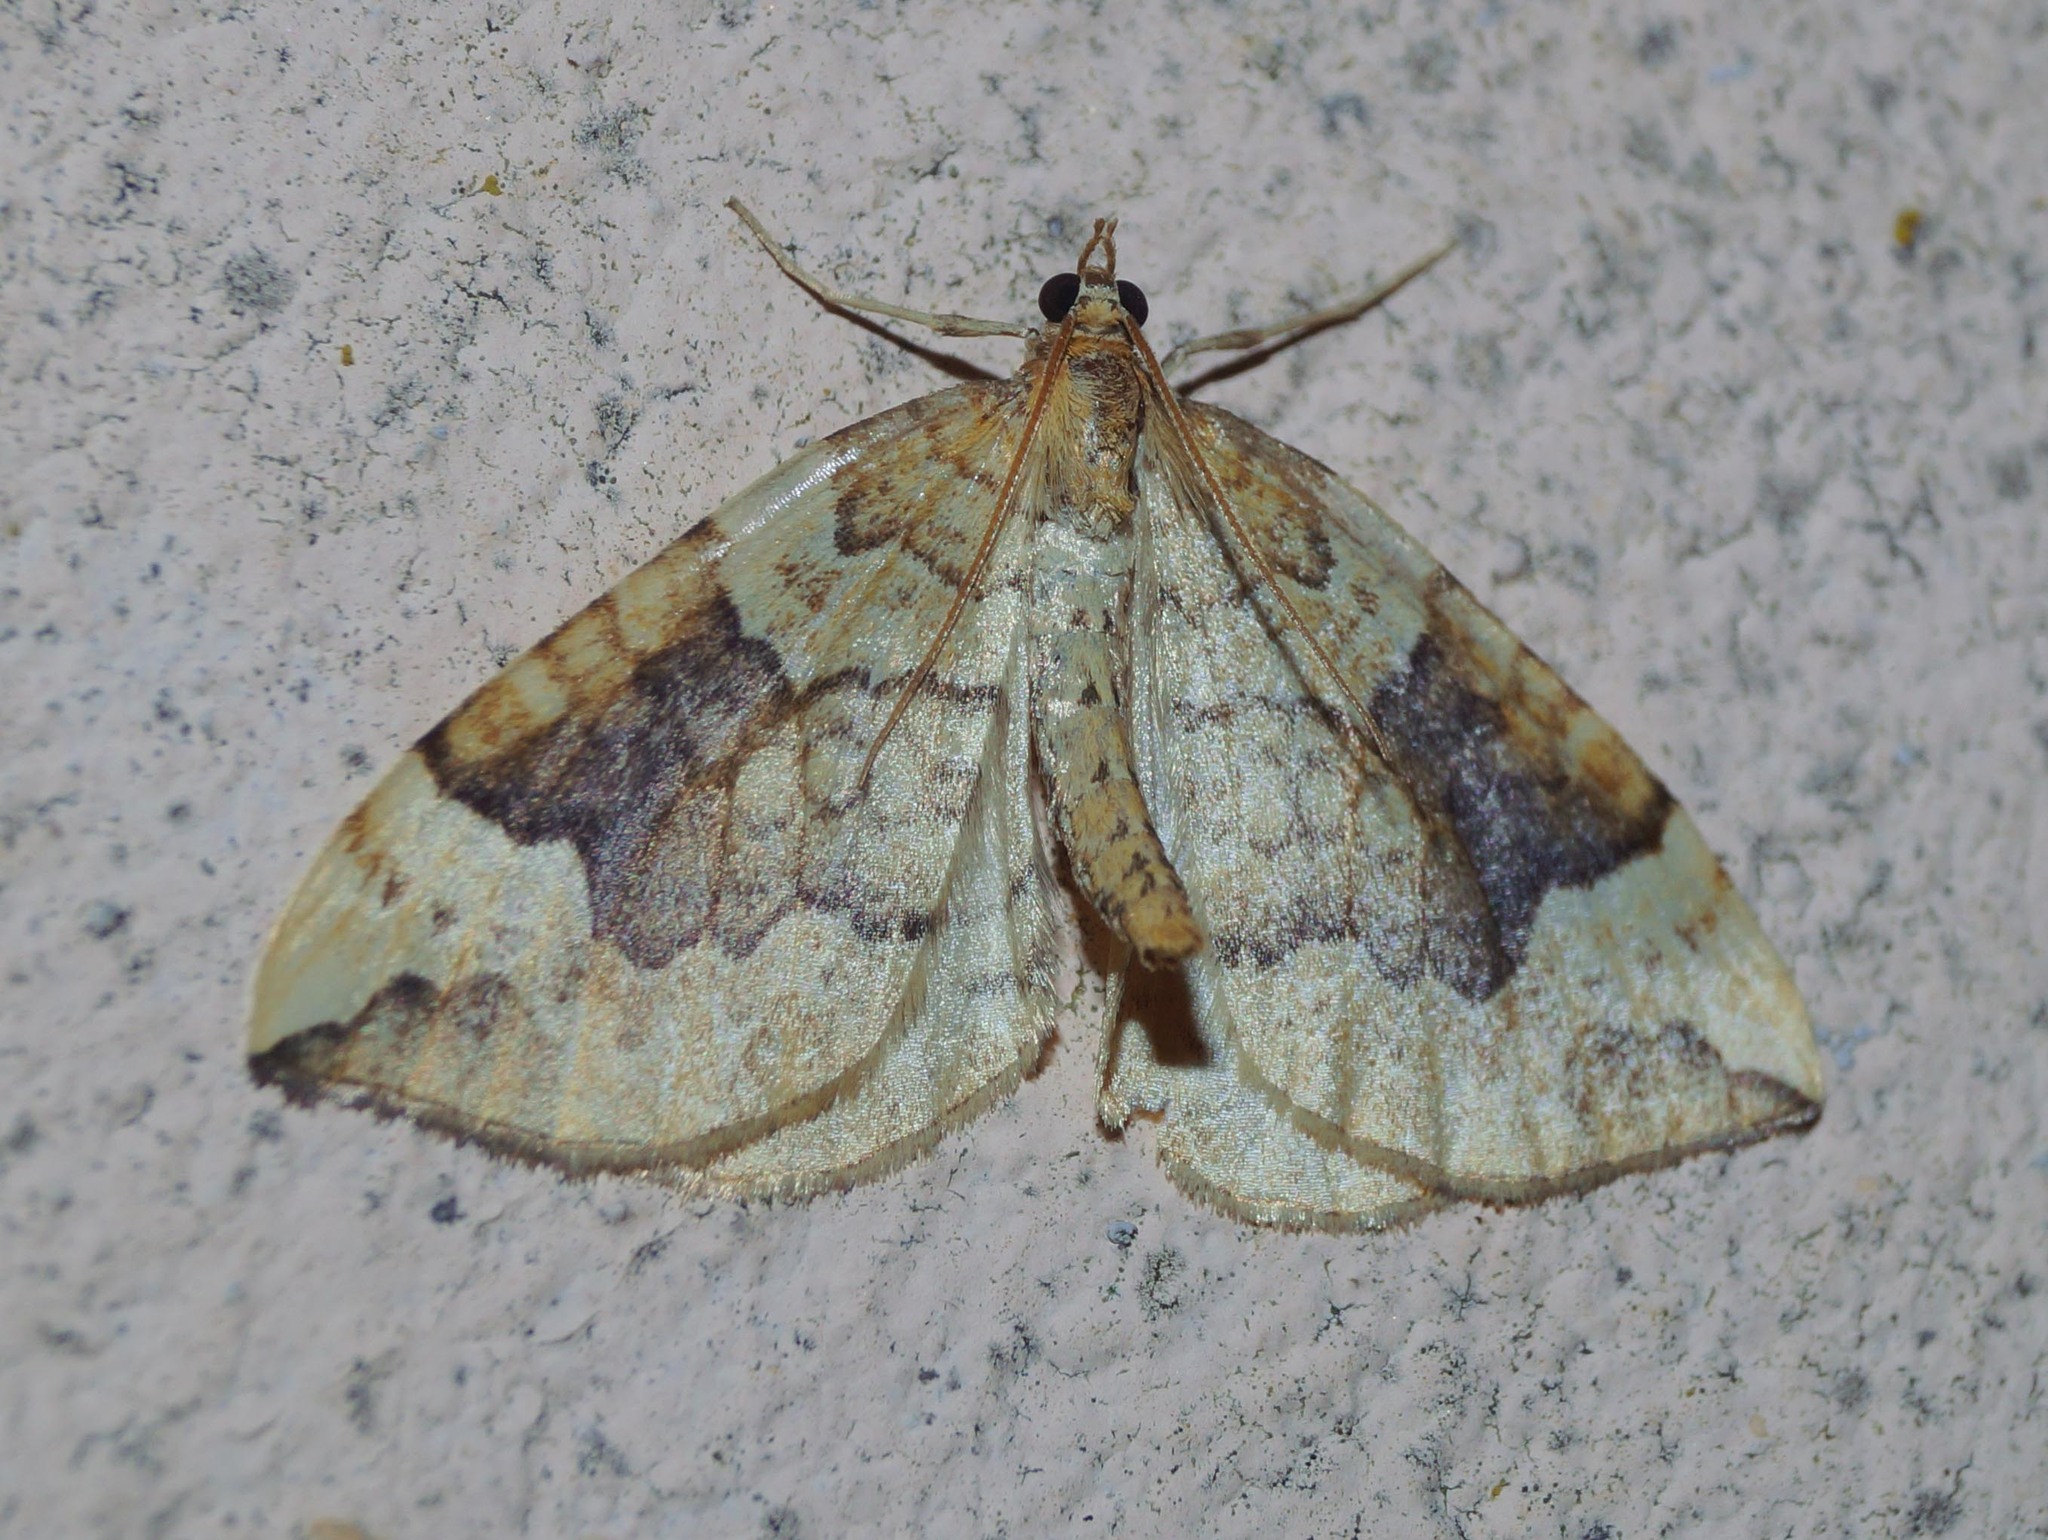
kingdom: Animalia
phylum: Arthropoda
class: Insecta
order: Lepidoptera
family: Geometridae
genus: Eulithis
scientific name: Eulithis populata
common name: Northern spinach
